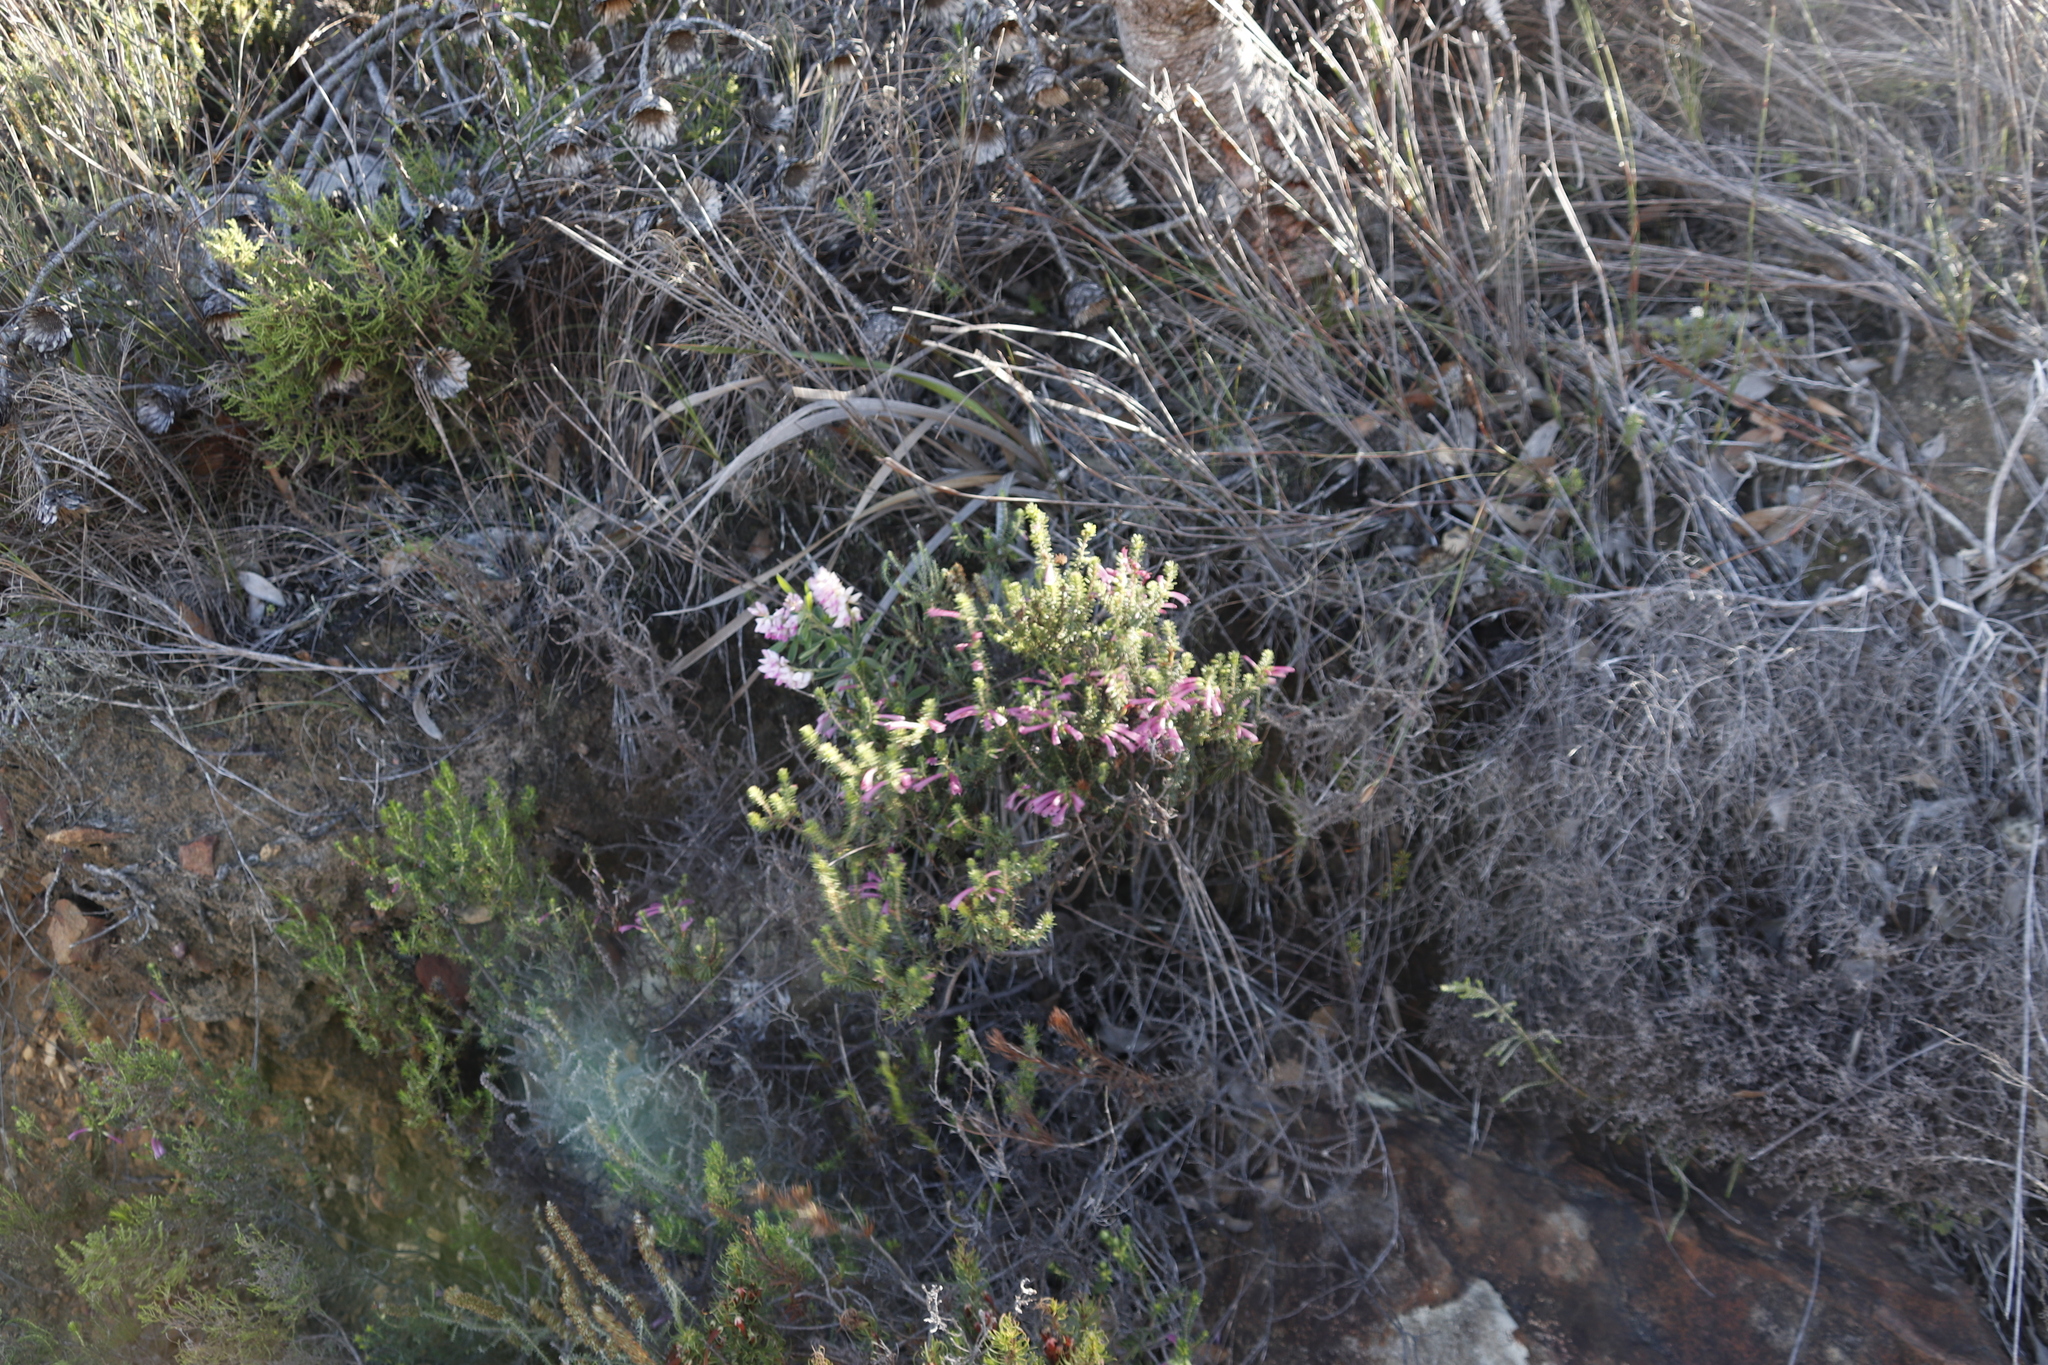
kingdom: Plantae
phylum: Tracheophyta
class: Magnoliopsida
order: Fabales
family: Fabaceae
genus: Indigofera
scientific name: Indigofera cytisoides
